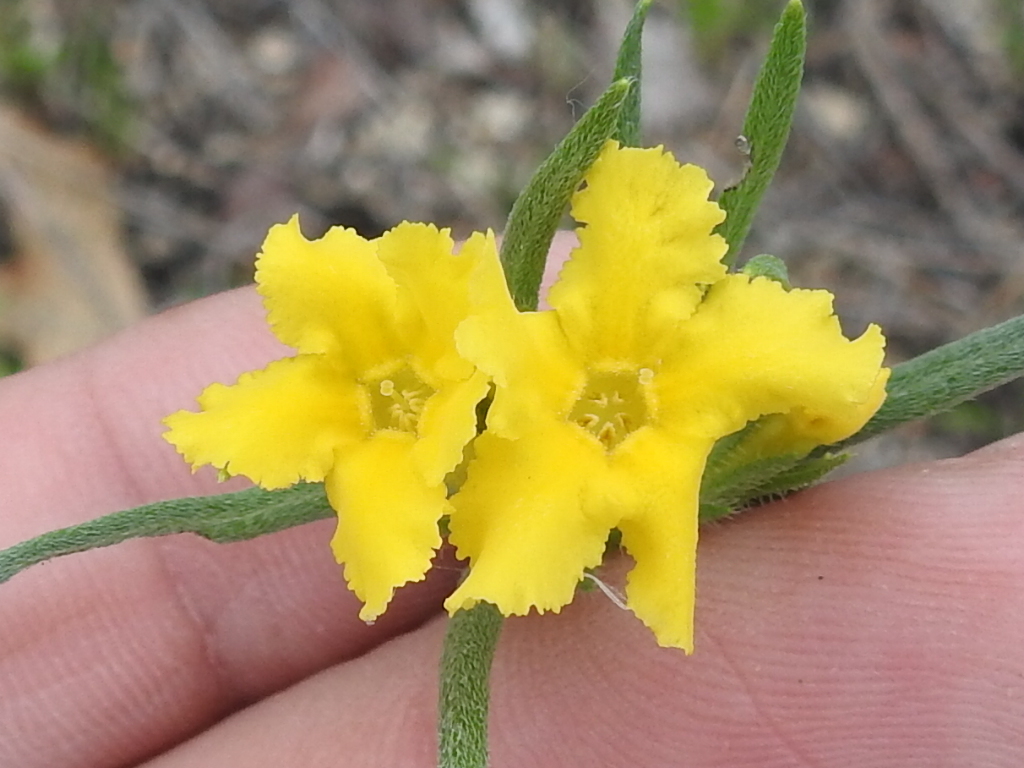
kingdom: Plantae
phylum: Tracheophyta
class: Magnoliopsida
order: Boraginales
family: Boraginaceae
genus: Lithospermum
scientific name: Lithospermum incisum
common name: Fringed gromwell
